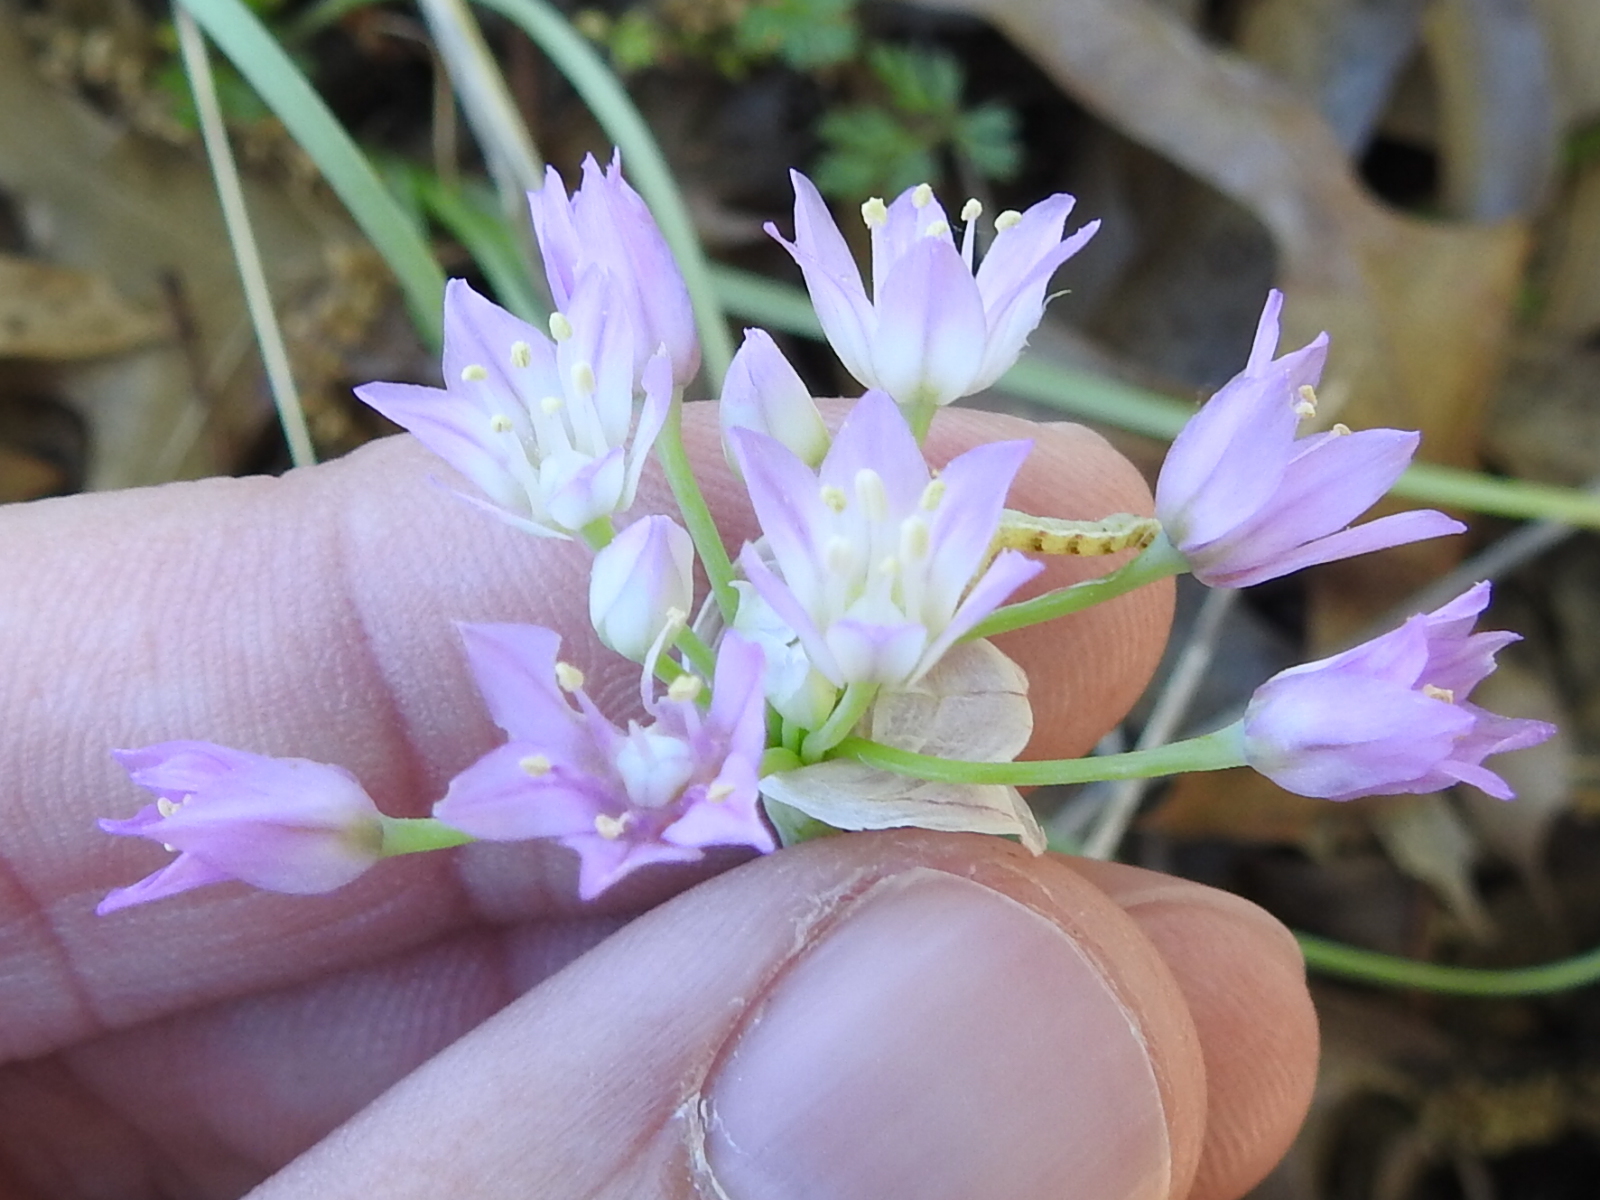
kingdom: Plantae
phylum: Tracheophyta
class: Liliopsida
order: Asparagales
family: Amaryllidaceae
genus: Allium
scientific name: Allium drummondii
